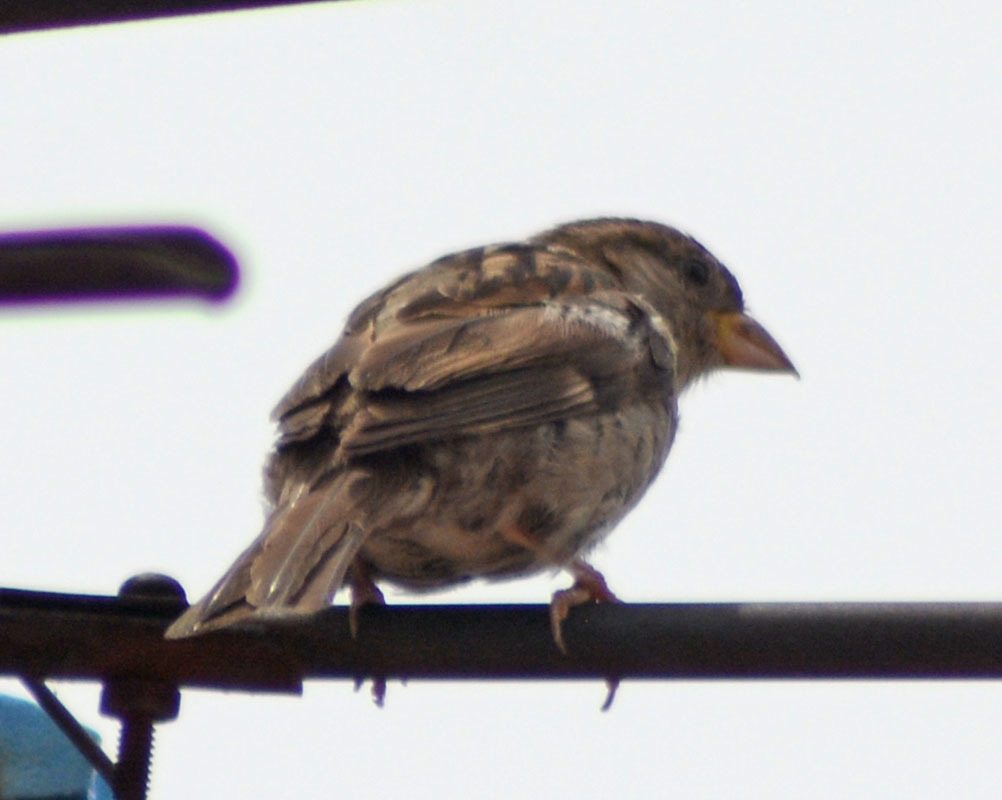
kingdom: Animalia
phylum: Chordata
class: Aves
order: Passeriformes
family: Passeridae
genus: Passer
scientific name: Passer domesticus
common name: House sparrow
